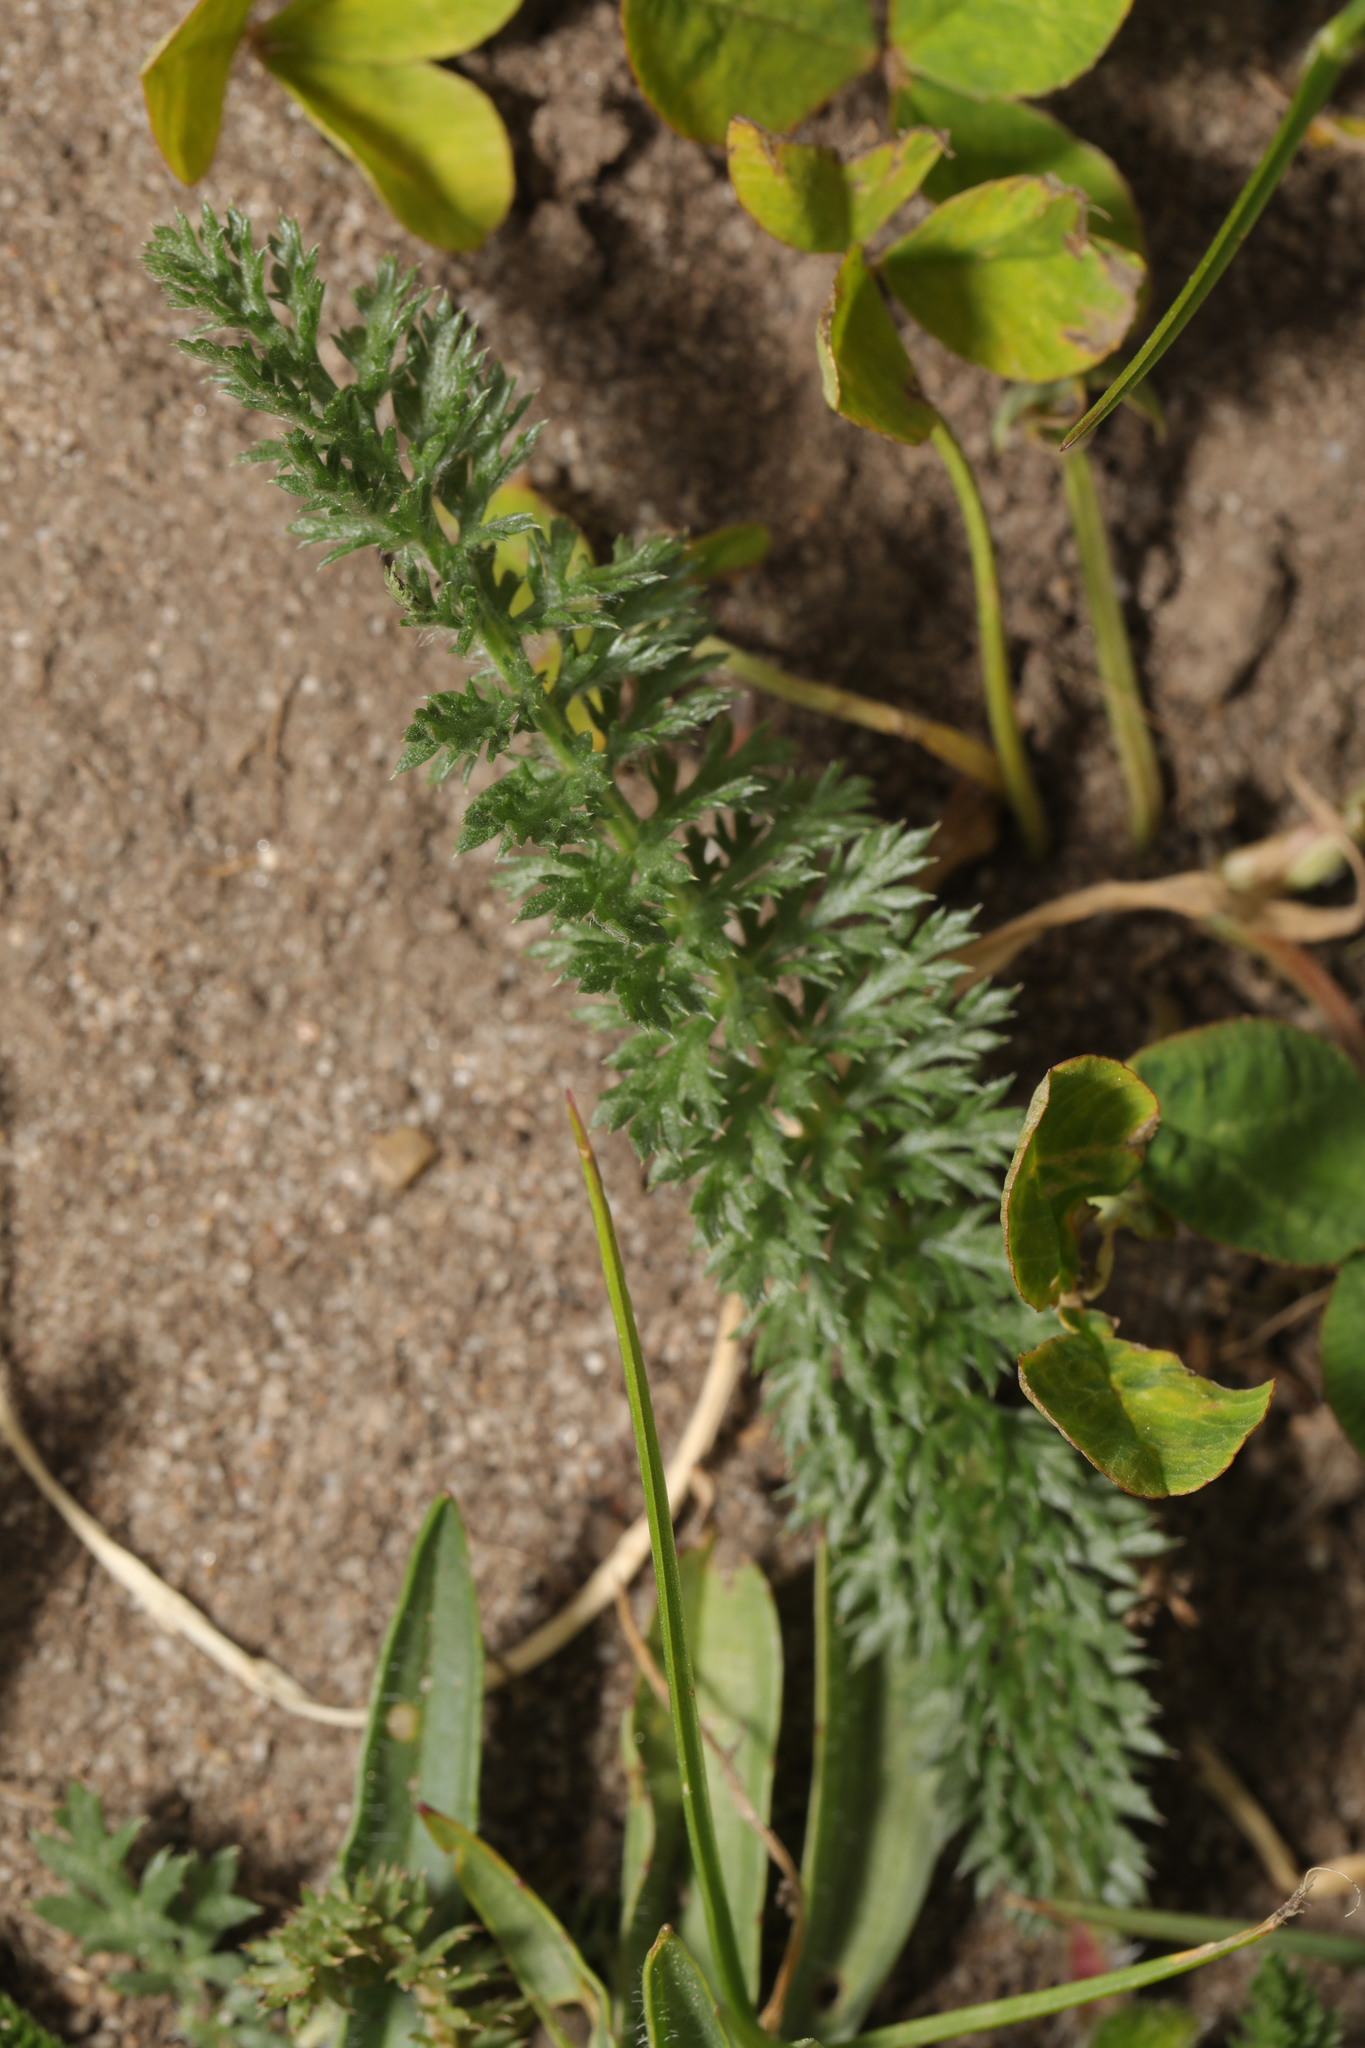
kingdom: Plantae
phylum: Tracheophyta
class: Magnoliopsida
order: Asterales
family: Asteraceae
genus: Achillea
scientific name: Achillea millefolium
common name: Yarrow
